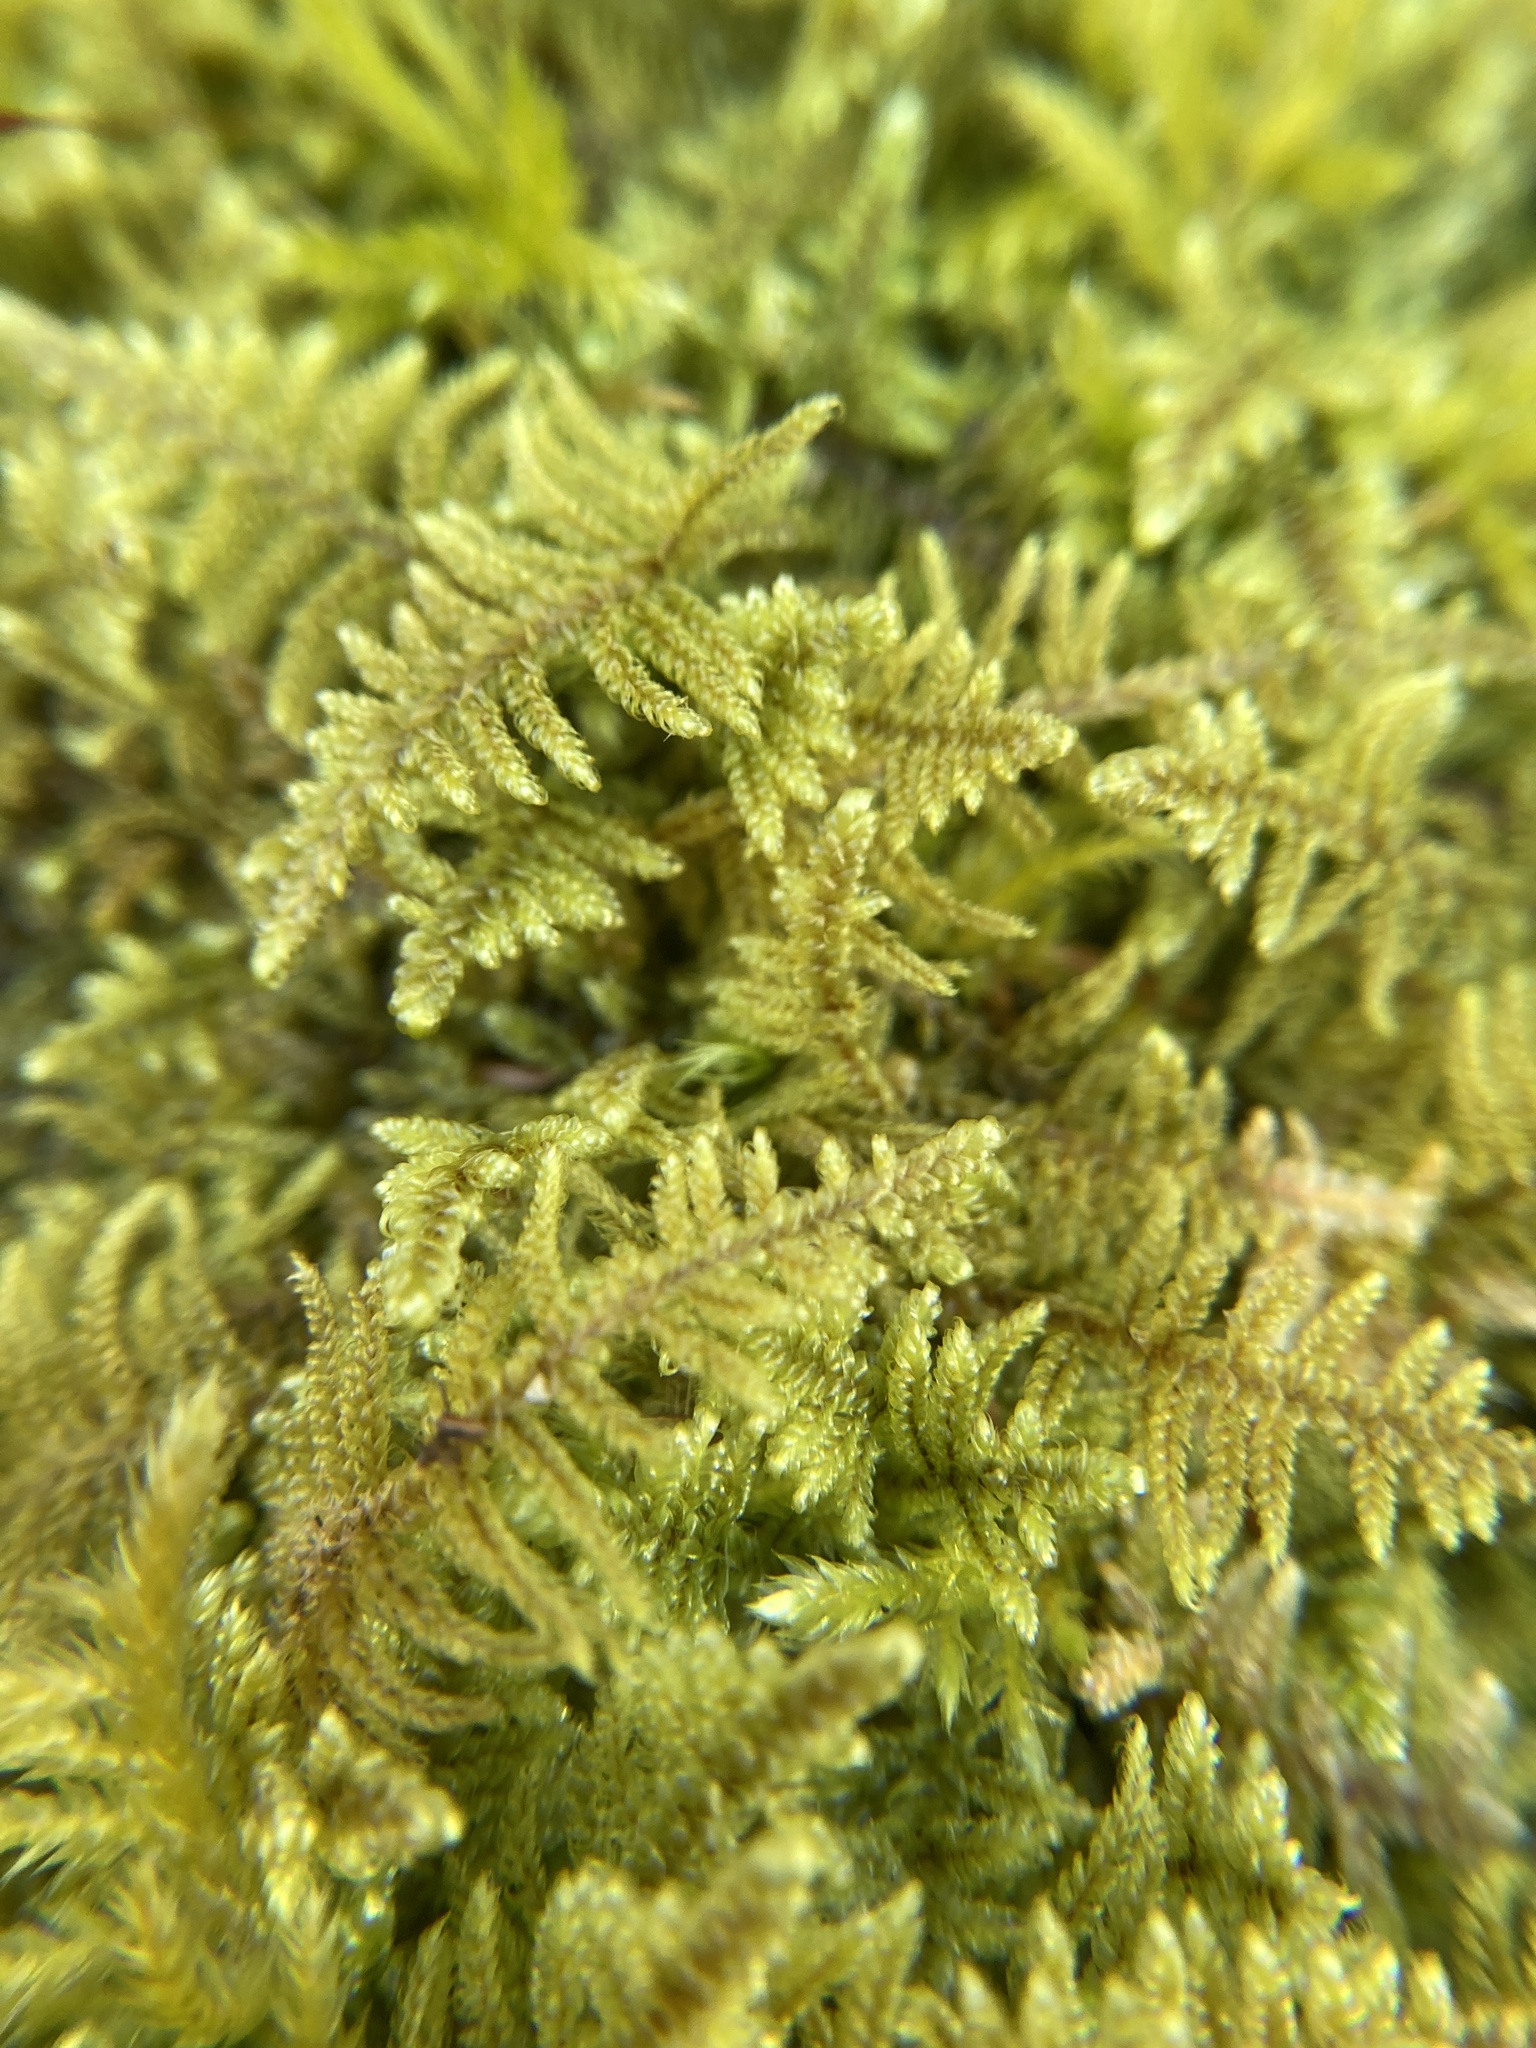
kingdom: Plantae
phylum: Bryophyta
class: Bryopsida
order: Hypnales
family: Callicladiaceae
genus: Callicladium
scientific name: Callicladium imponens
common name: Brocade moss
